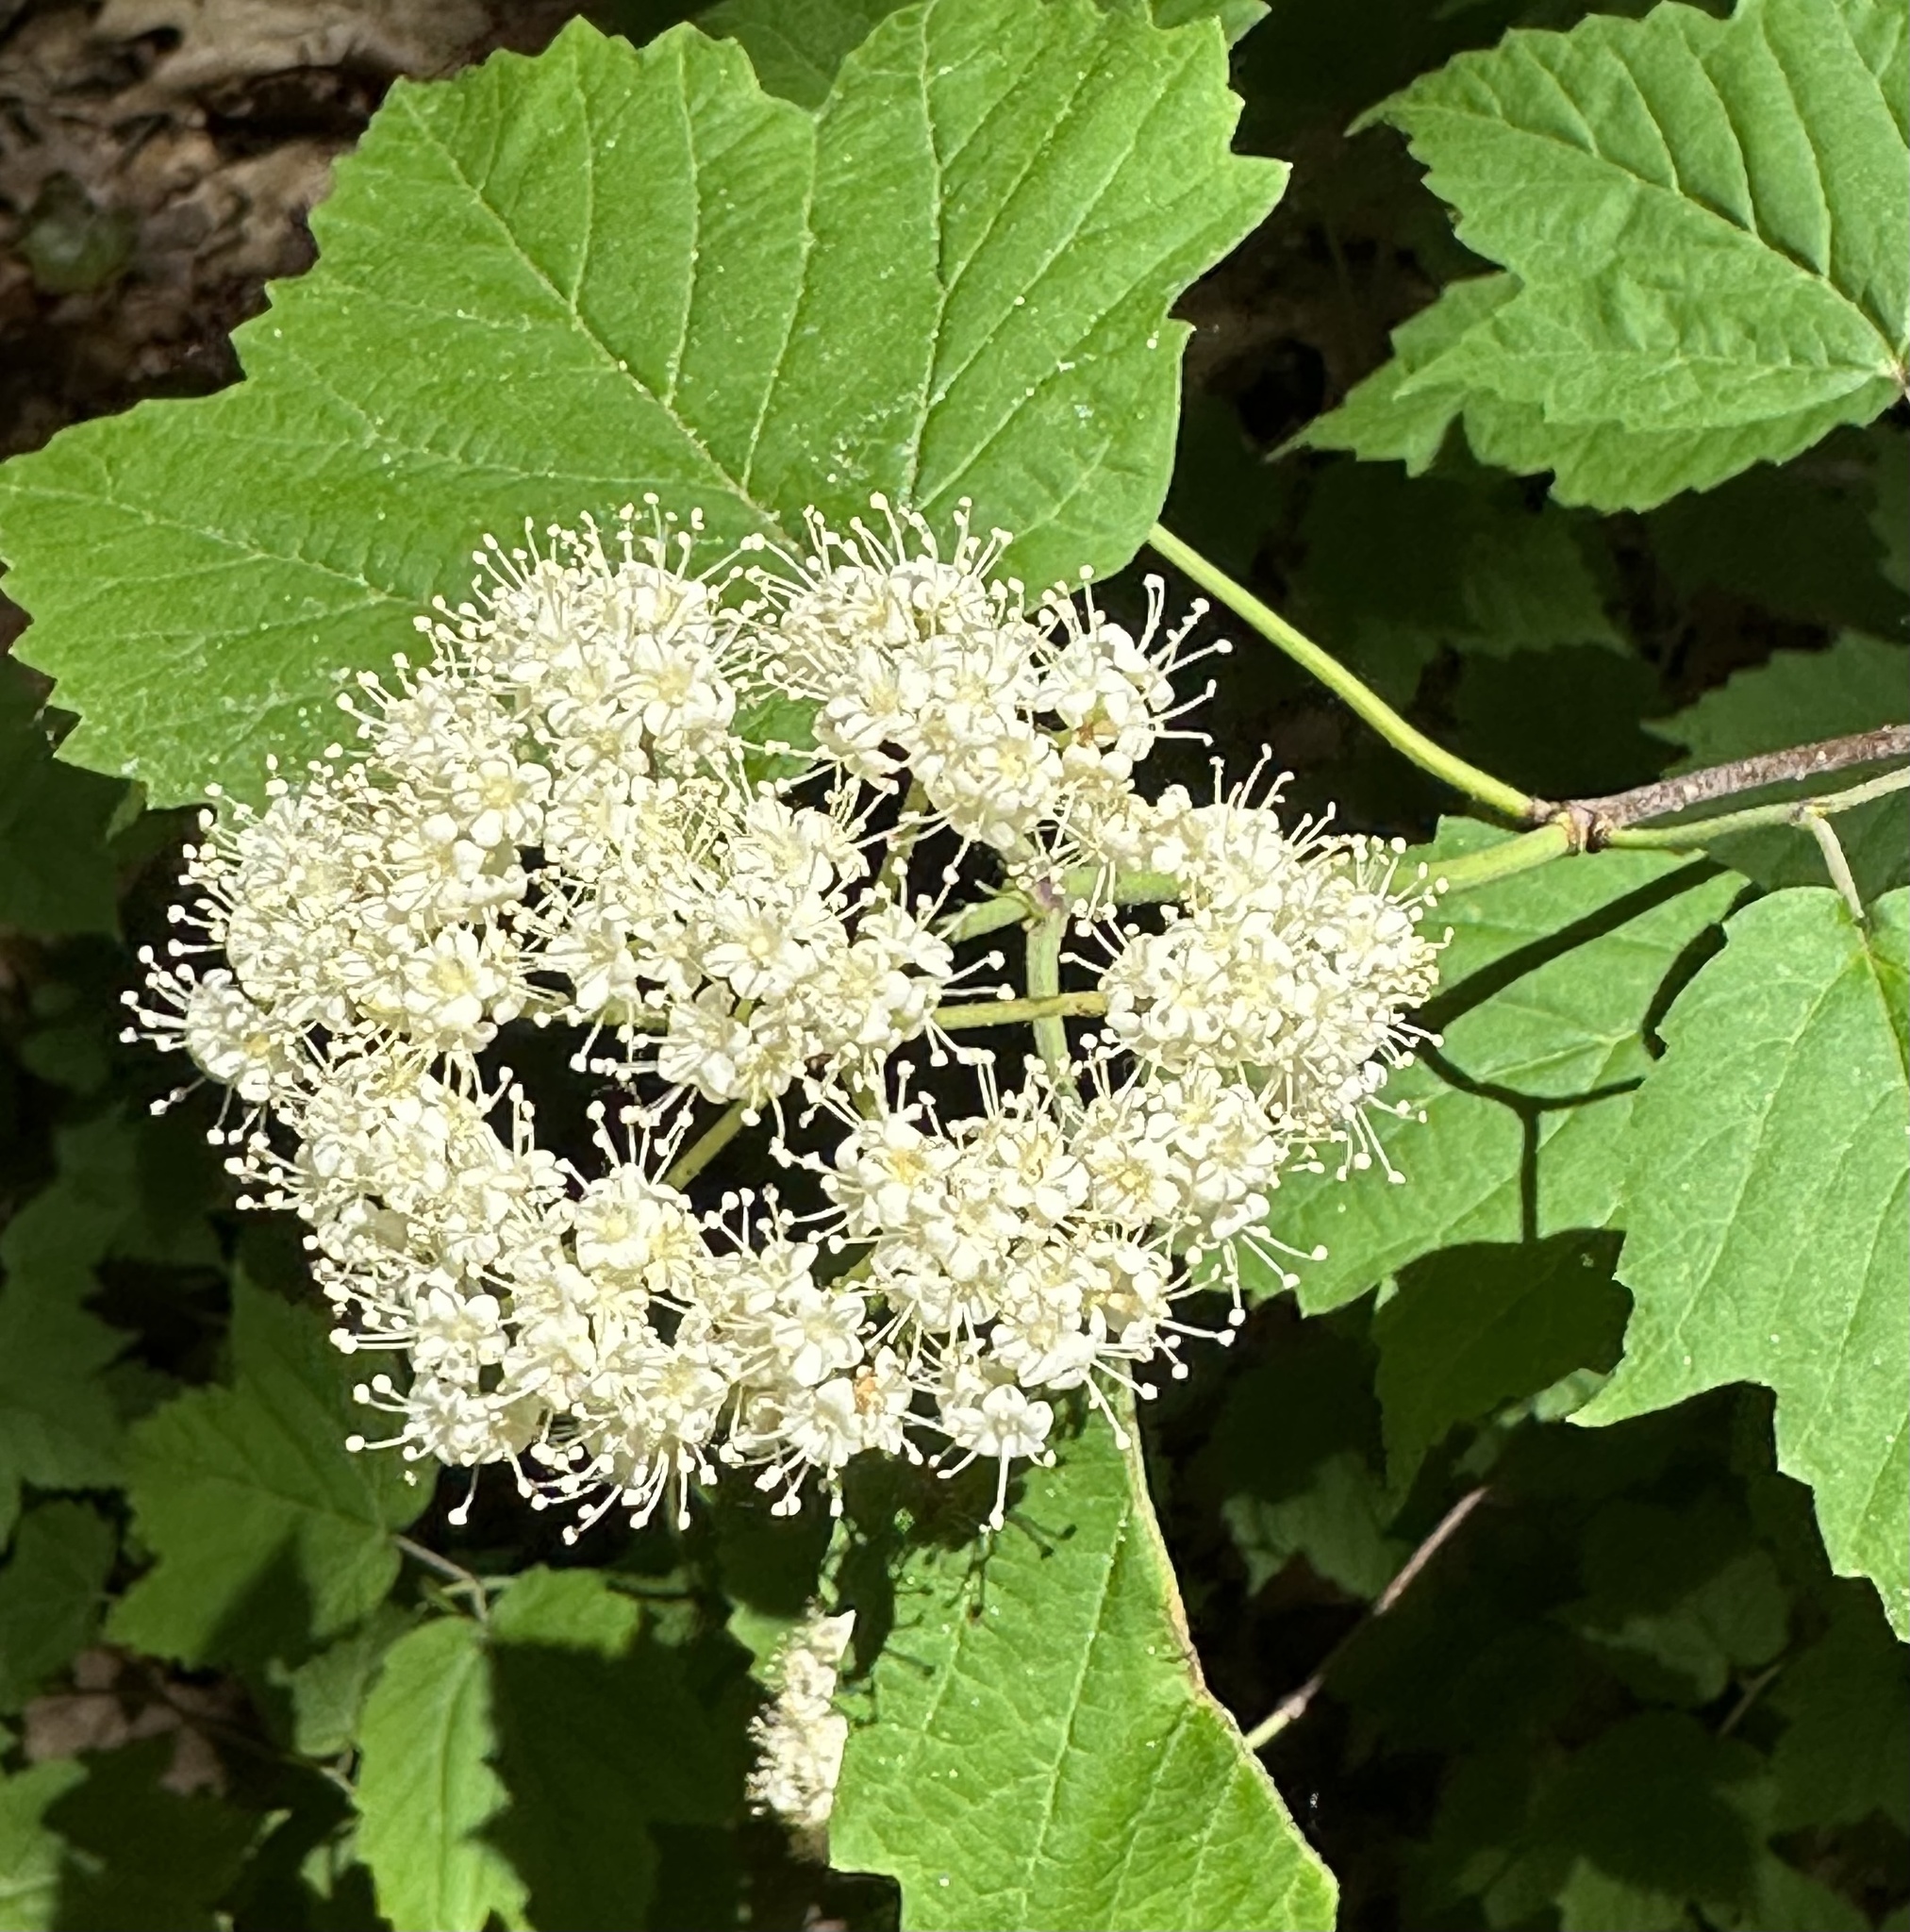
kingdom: Plantae
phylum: Tracheophyta
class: Magnoliopsida
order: Dipsacales
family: Viburnaceae
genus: Viburnum
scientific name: Viburnum acerifolium
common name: Dockmackie
